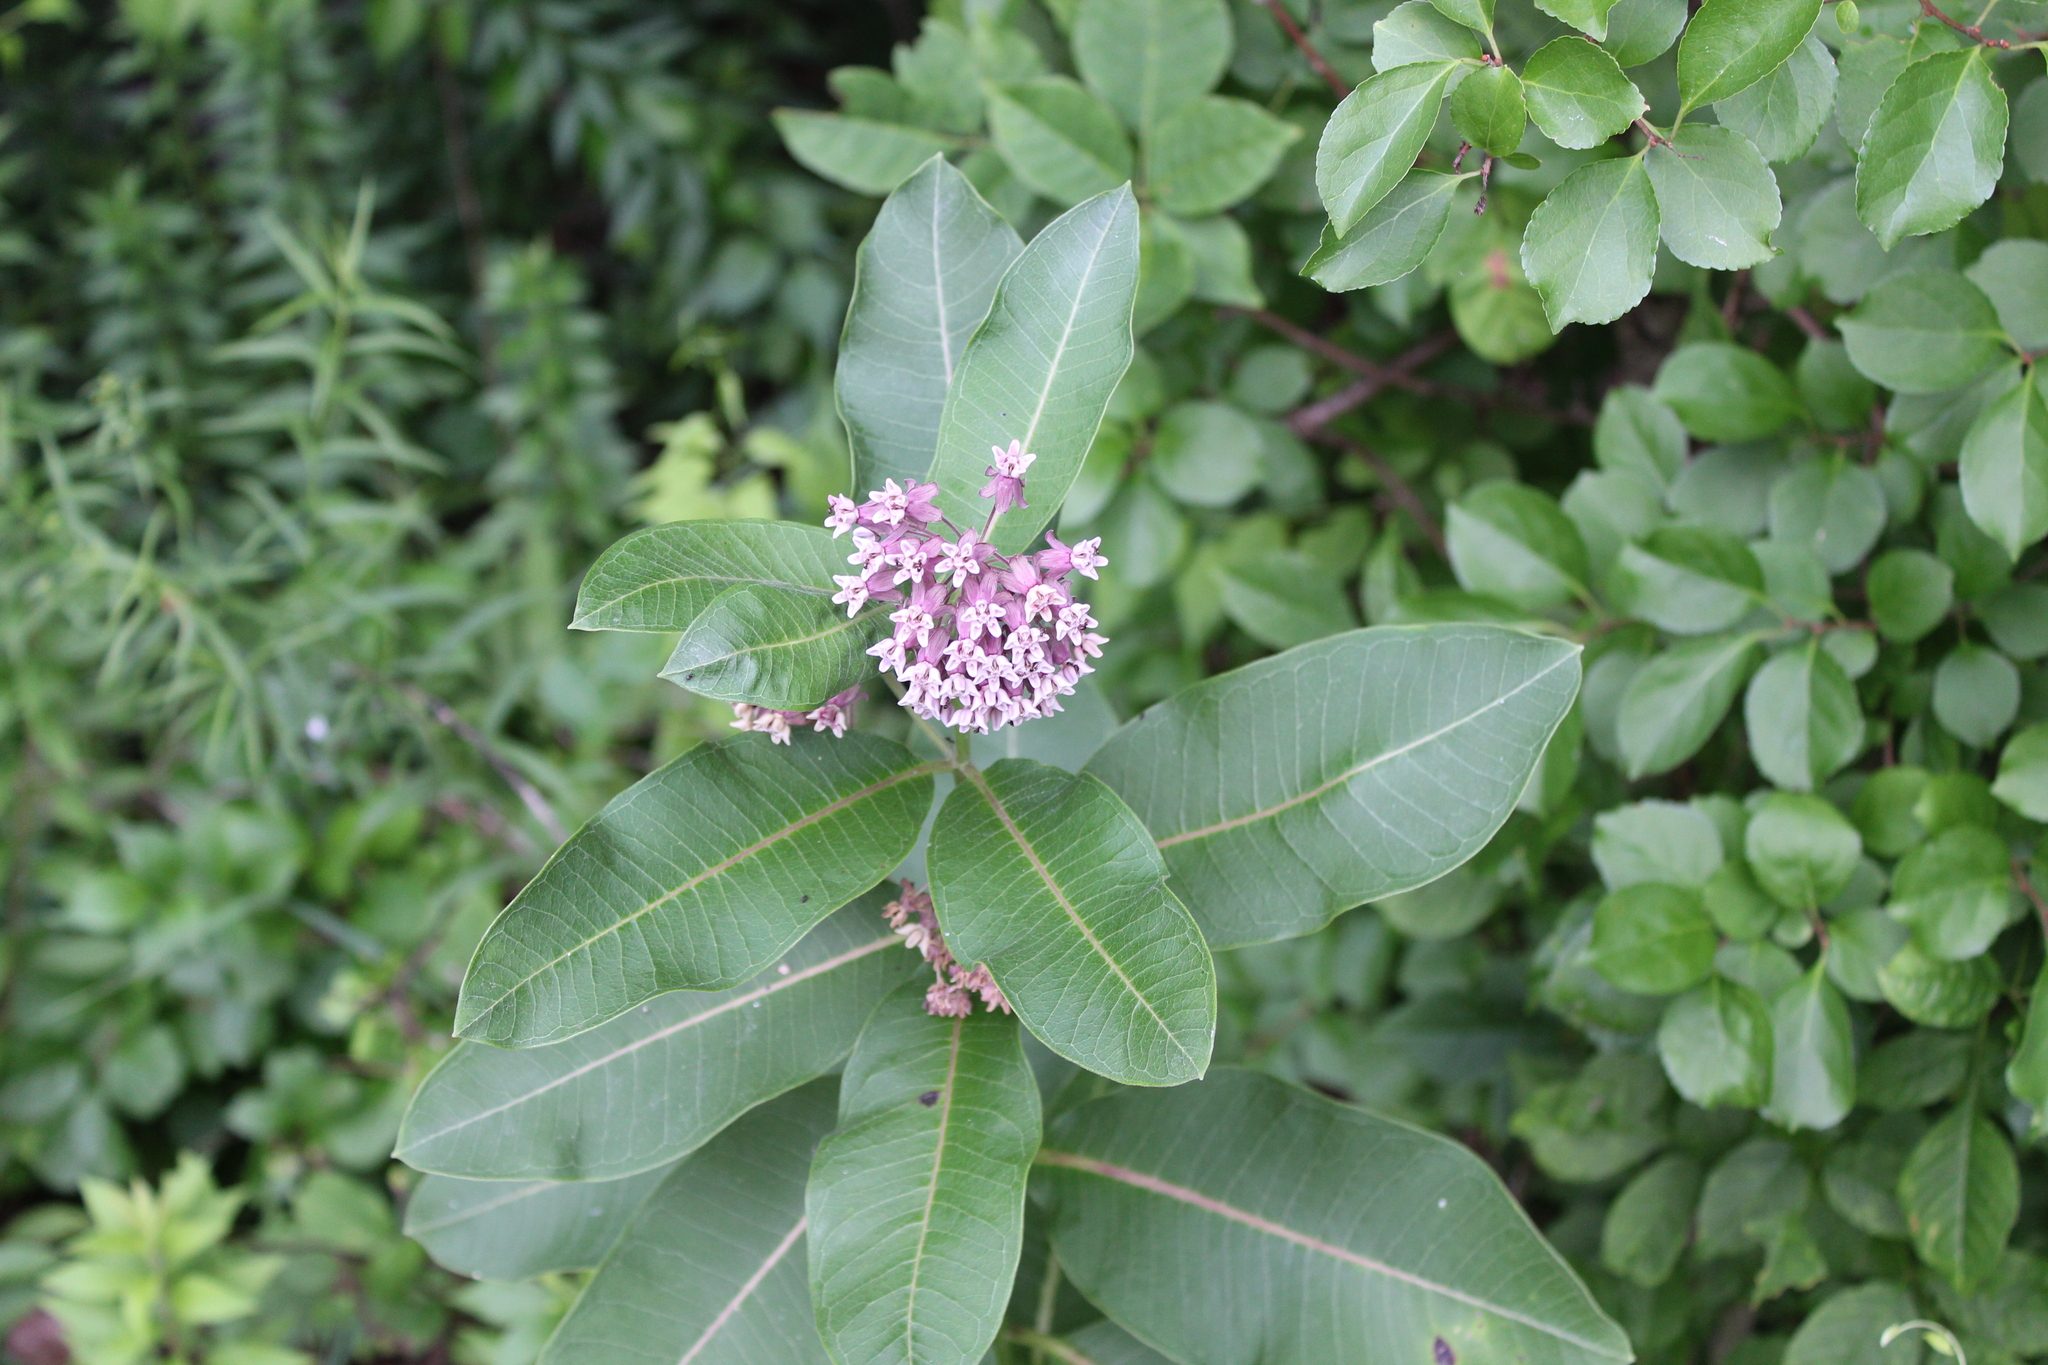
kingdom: Plantae
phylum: Tracheophyta
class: Magnoliopsida
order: Gentianales
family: Apocynaceae
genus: Asclepias
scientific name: Asclepias syriaca
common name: Common milkweed
